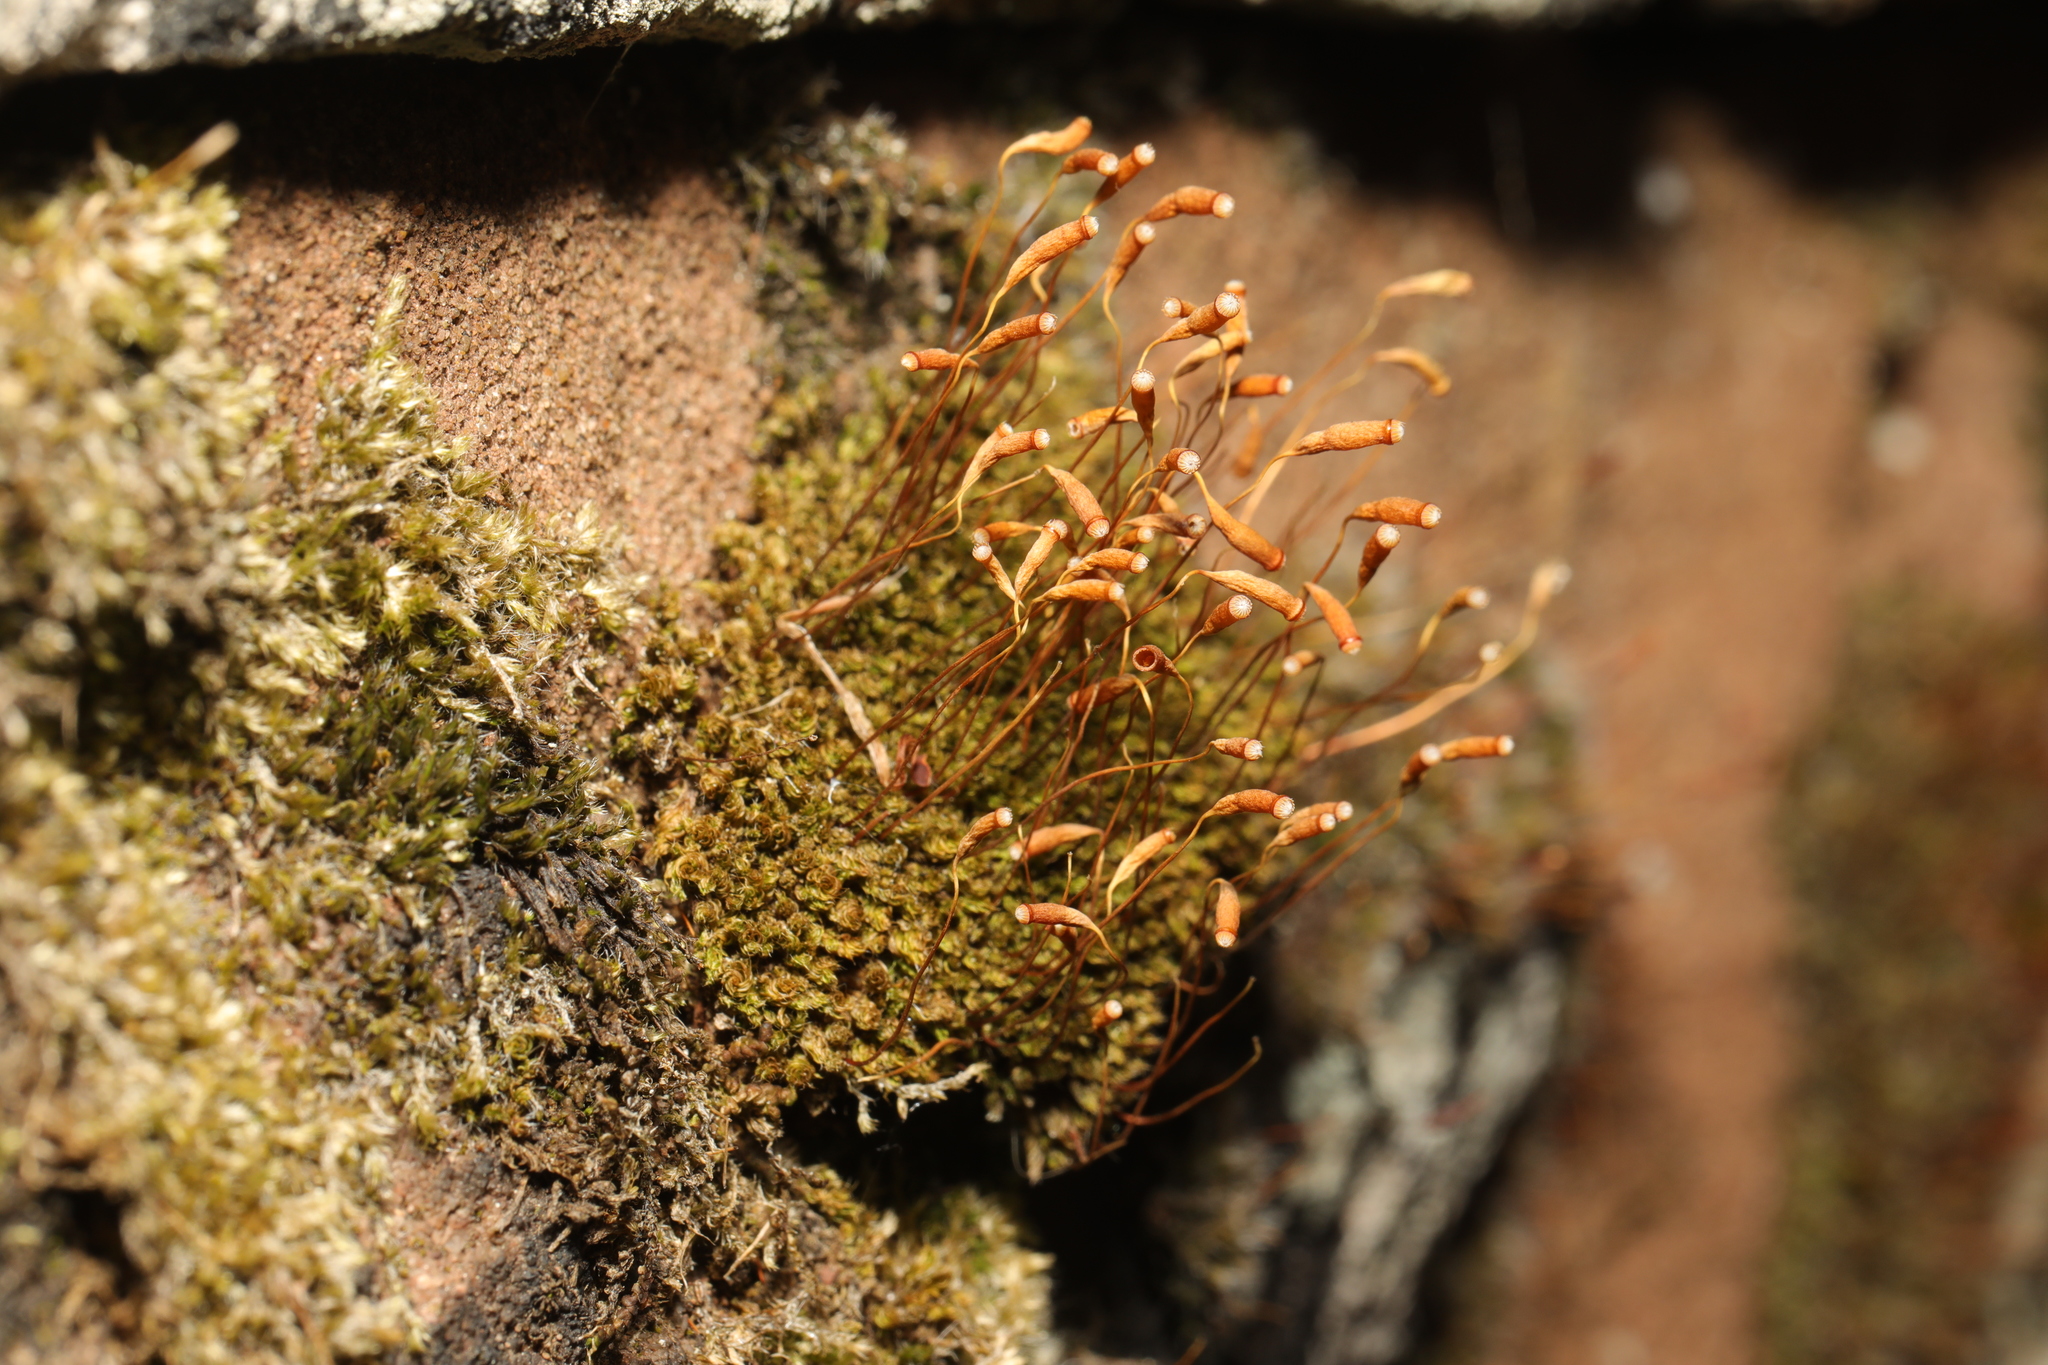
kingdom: Plantae
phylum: Bryophyta
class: Bryopsida
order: Bryales
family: Bryaceae
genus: Rosulabryum
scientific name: Rosulabryum capillare
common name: Capillary thread-moss
